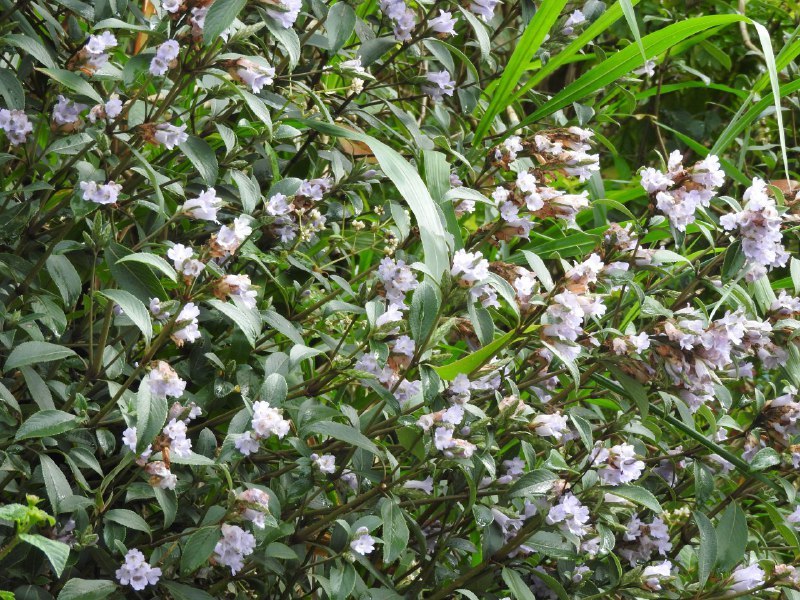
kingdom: Plantae
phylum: Tracheophyta
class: Magnoliopsida
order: Lamiales
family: Acanthaceae
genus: Strobilanthes
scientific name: Strobilanthes kunthiana
